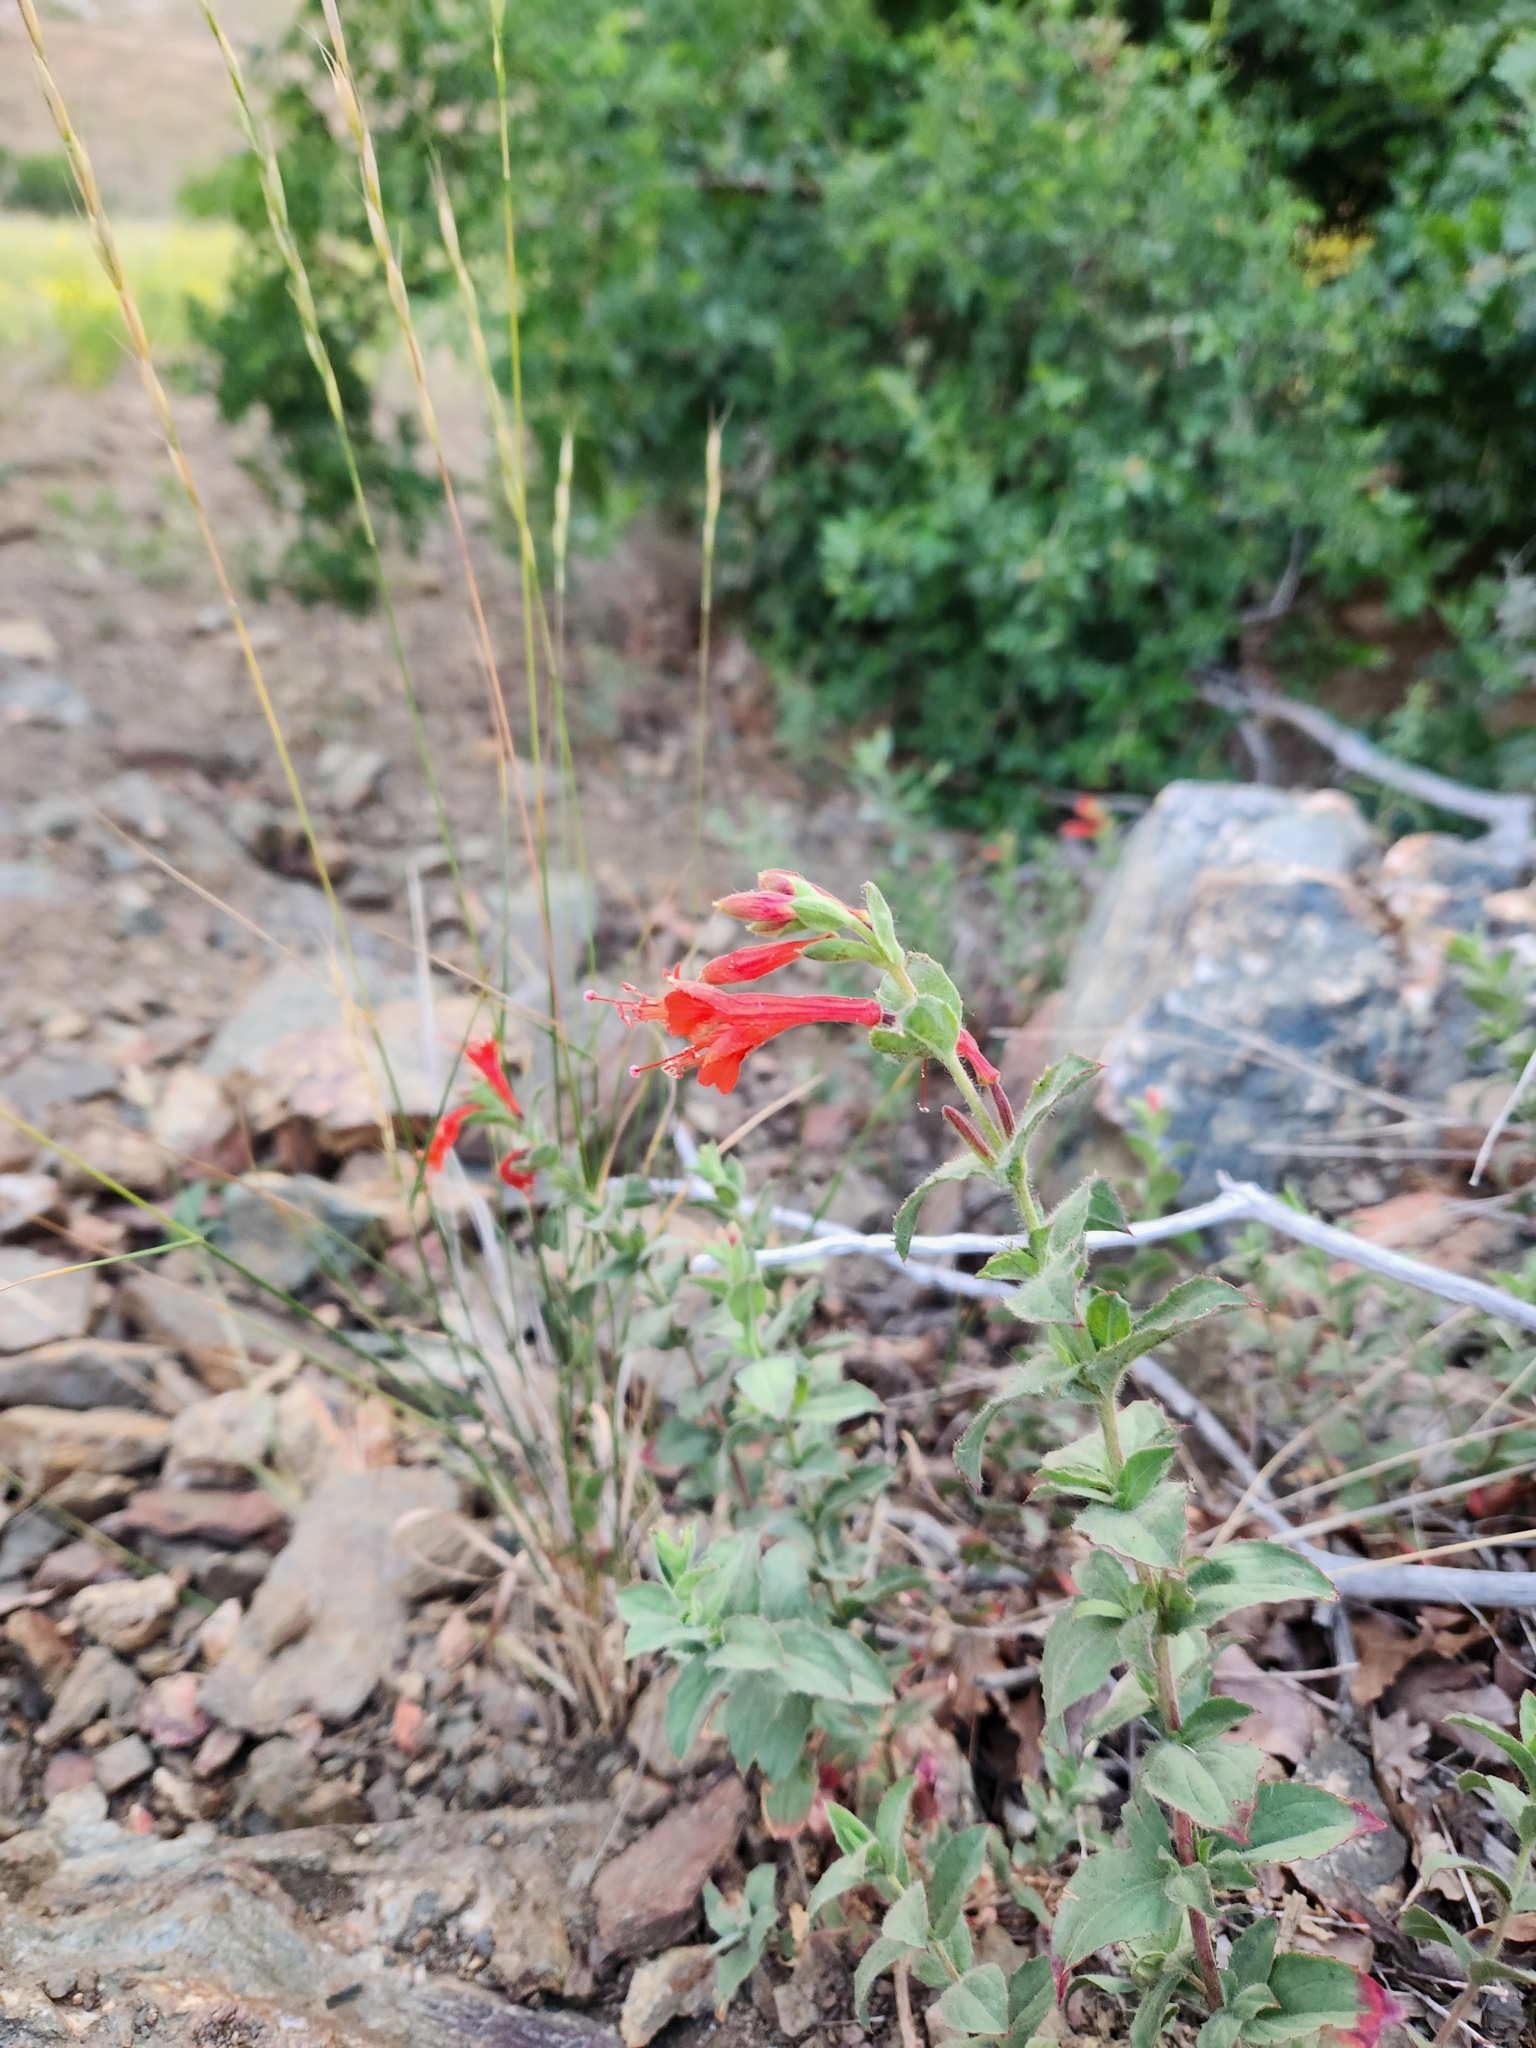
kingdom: Plantae
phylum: Tracheophyta
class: Magnoliopsida
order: Myrtales
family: Onagraceae
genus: Epilobium
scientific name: Epilobium canum
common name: California-fuchsia
